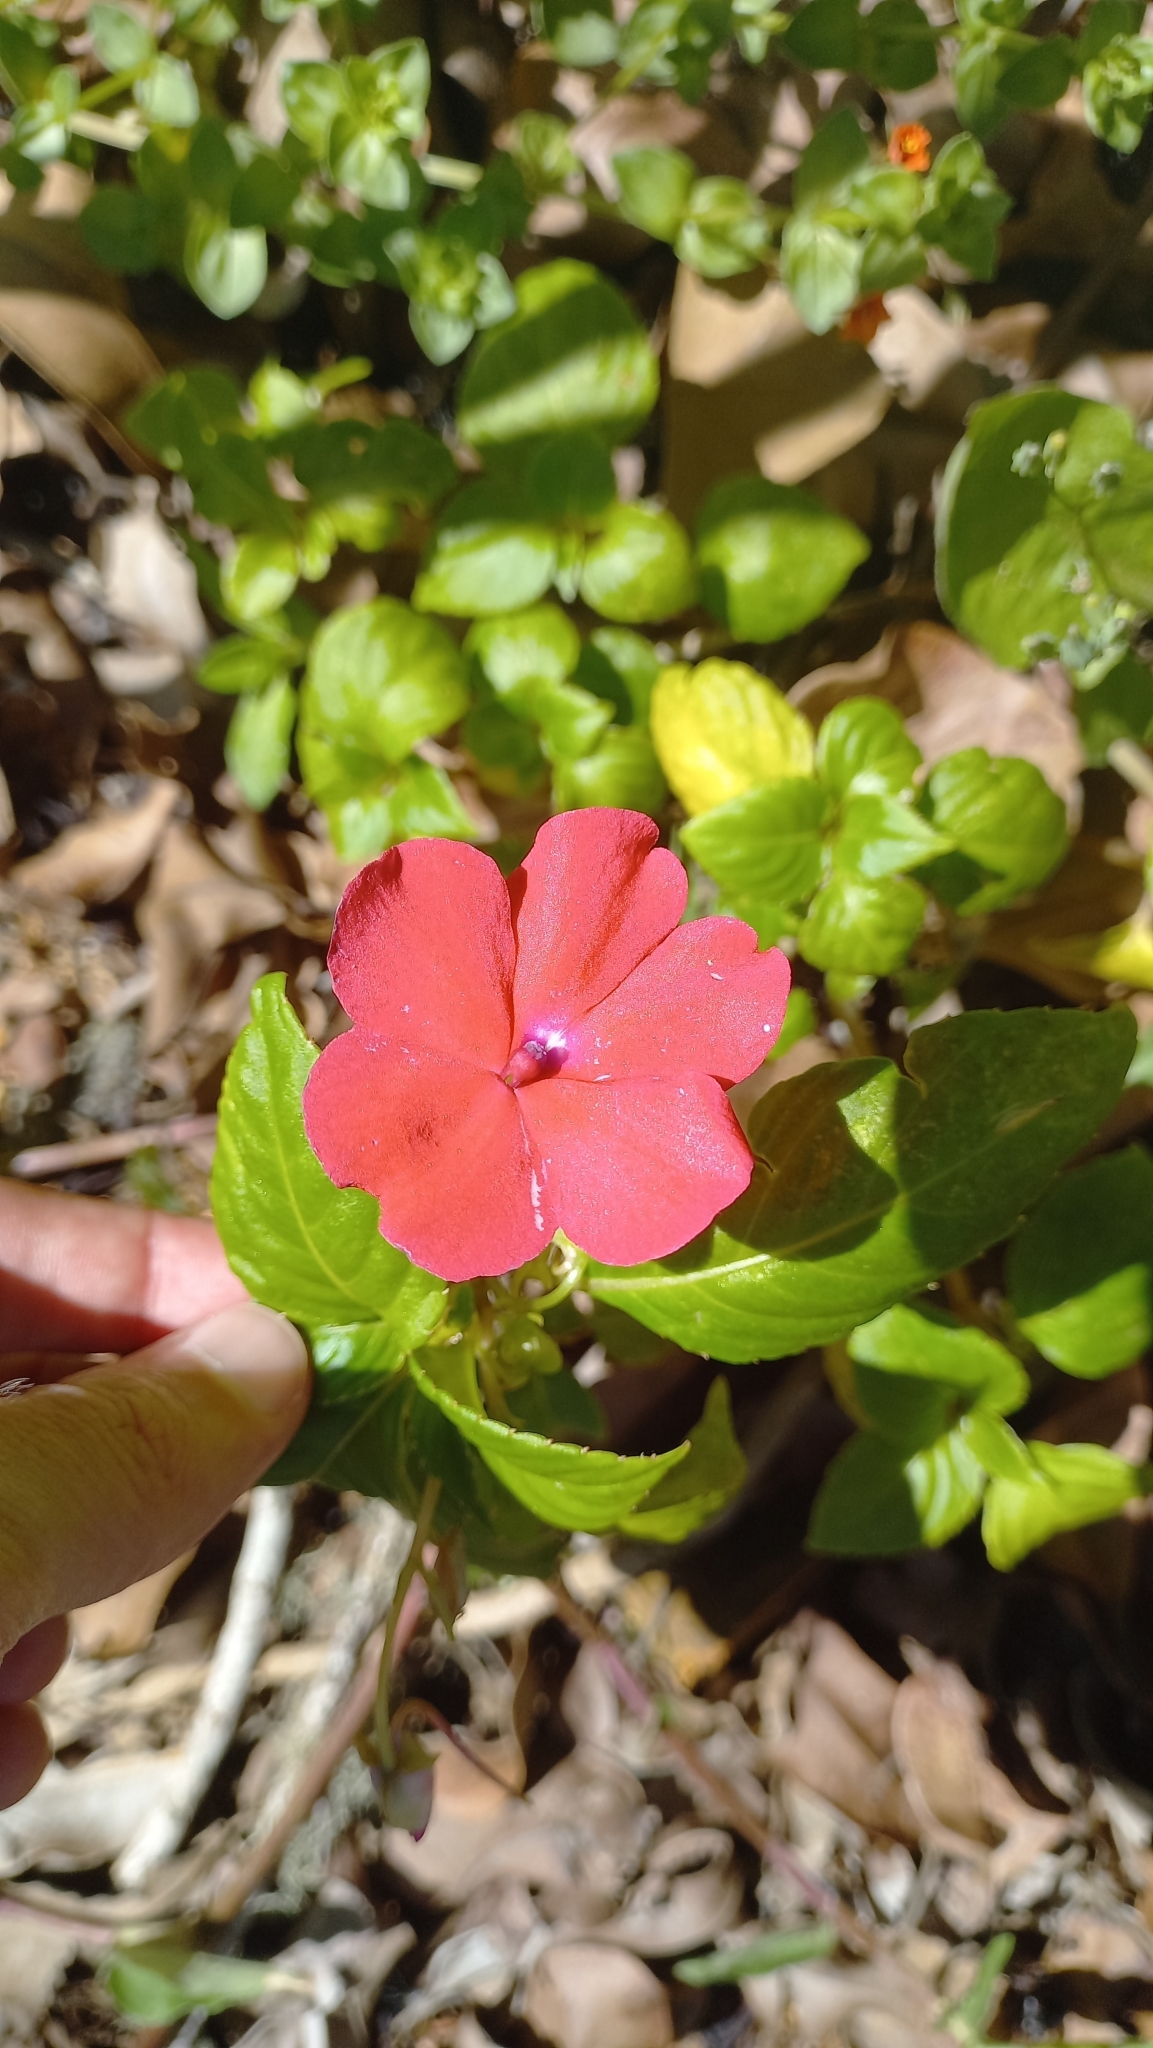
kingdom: Plantae
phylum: Tracheophyta
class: Magnoliopsida
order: Ericales
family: Balsaminaceae
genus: Impatiens
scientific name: Impatiens walleriana
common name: Buzzy lizzy
